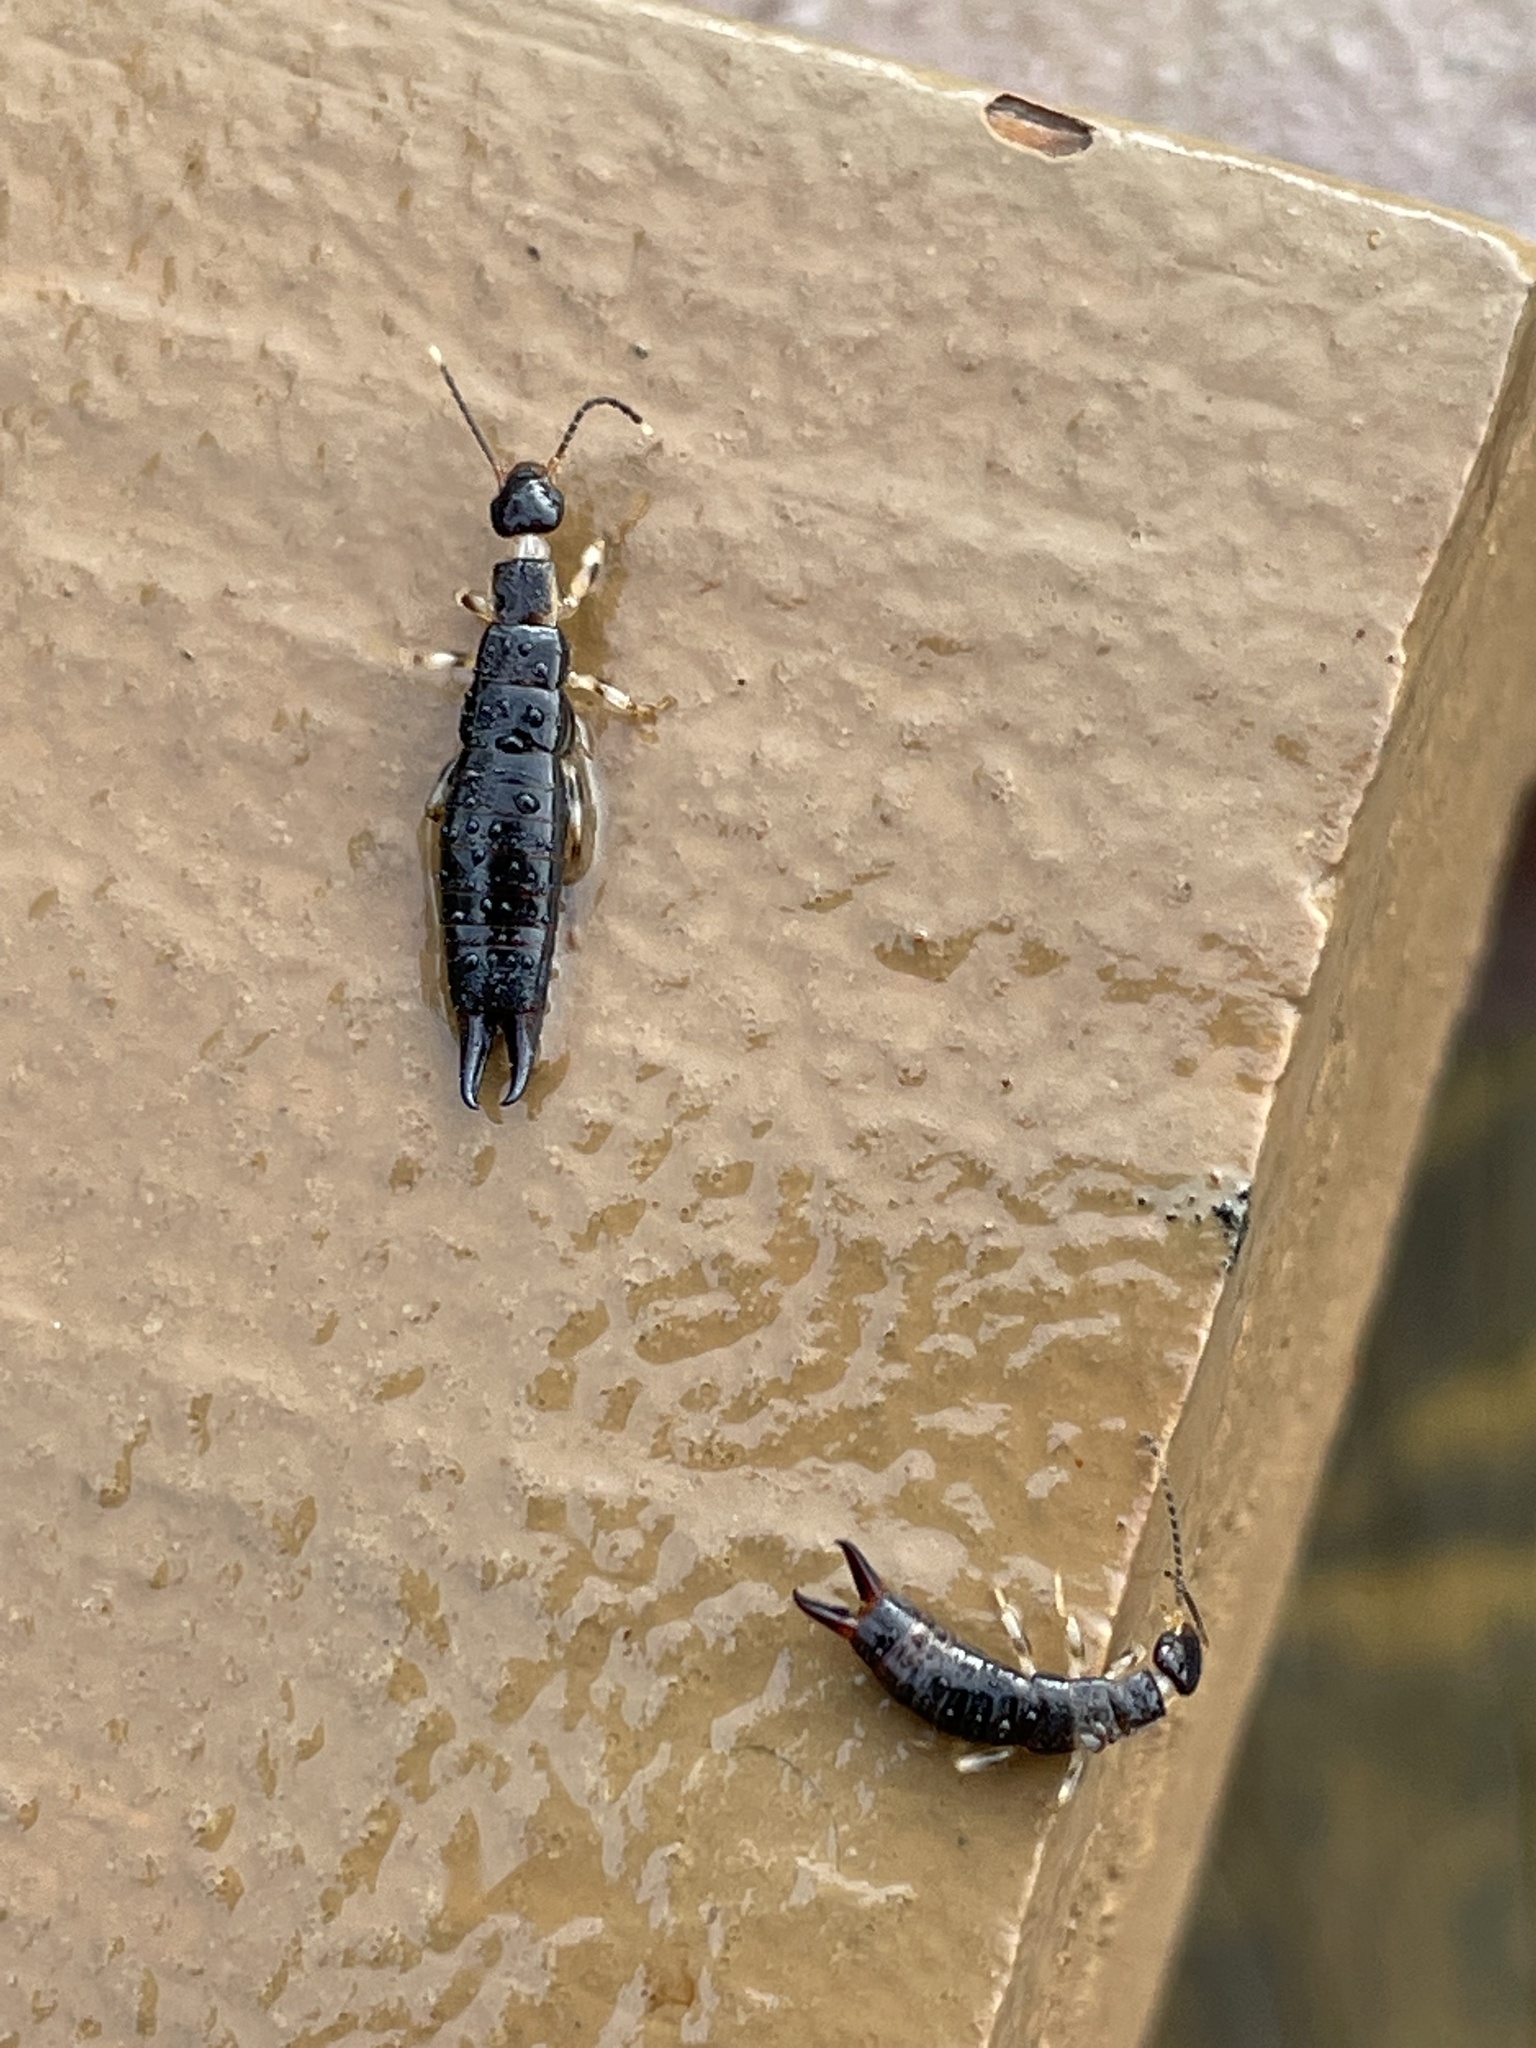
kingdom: Animalia
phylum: Arthropoda
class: Insecta
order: Dermaptera
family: Anisolabididae
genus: Euborellia
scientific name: Euborellia annulipes
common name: Ringlegged earwig
